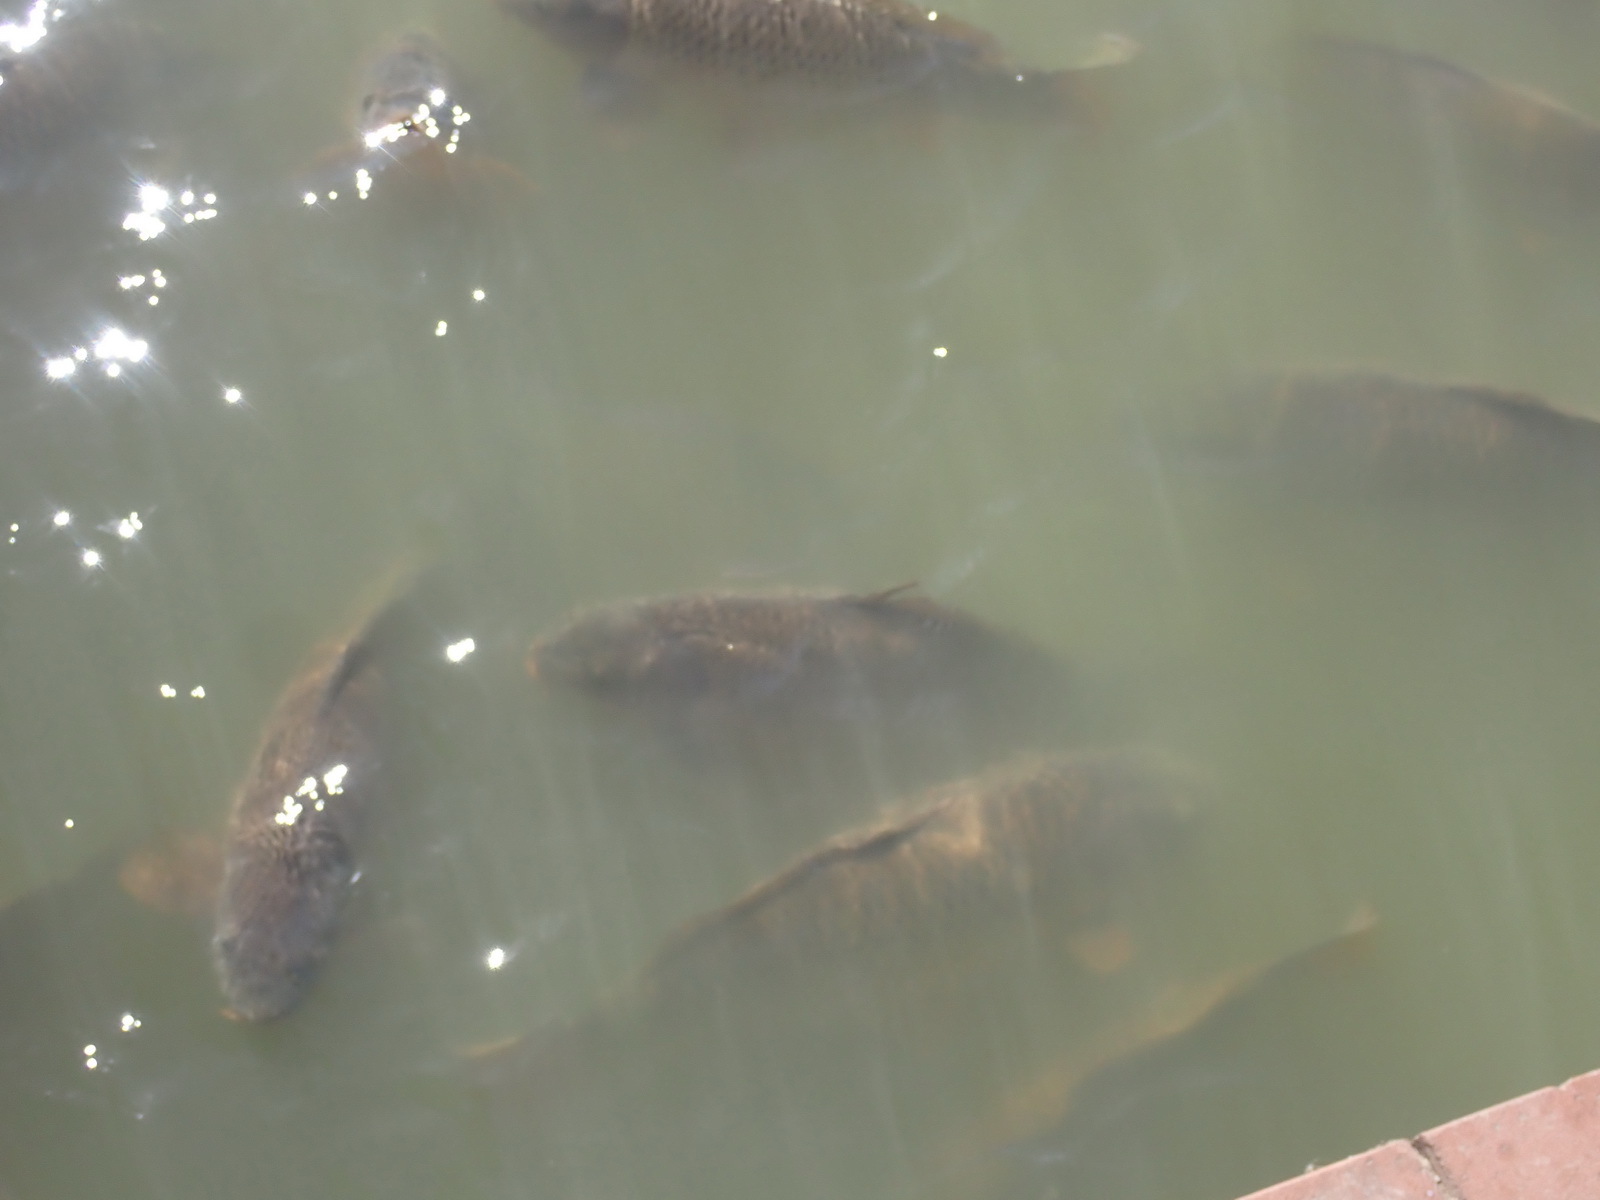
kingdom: Animalia
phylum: Chordata
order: Cypriniformes
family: Cyprinidae
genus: Cyprinus
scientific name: Cyprinus carpio
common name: Common carp
